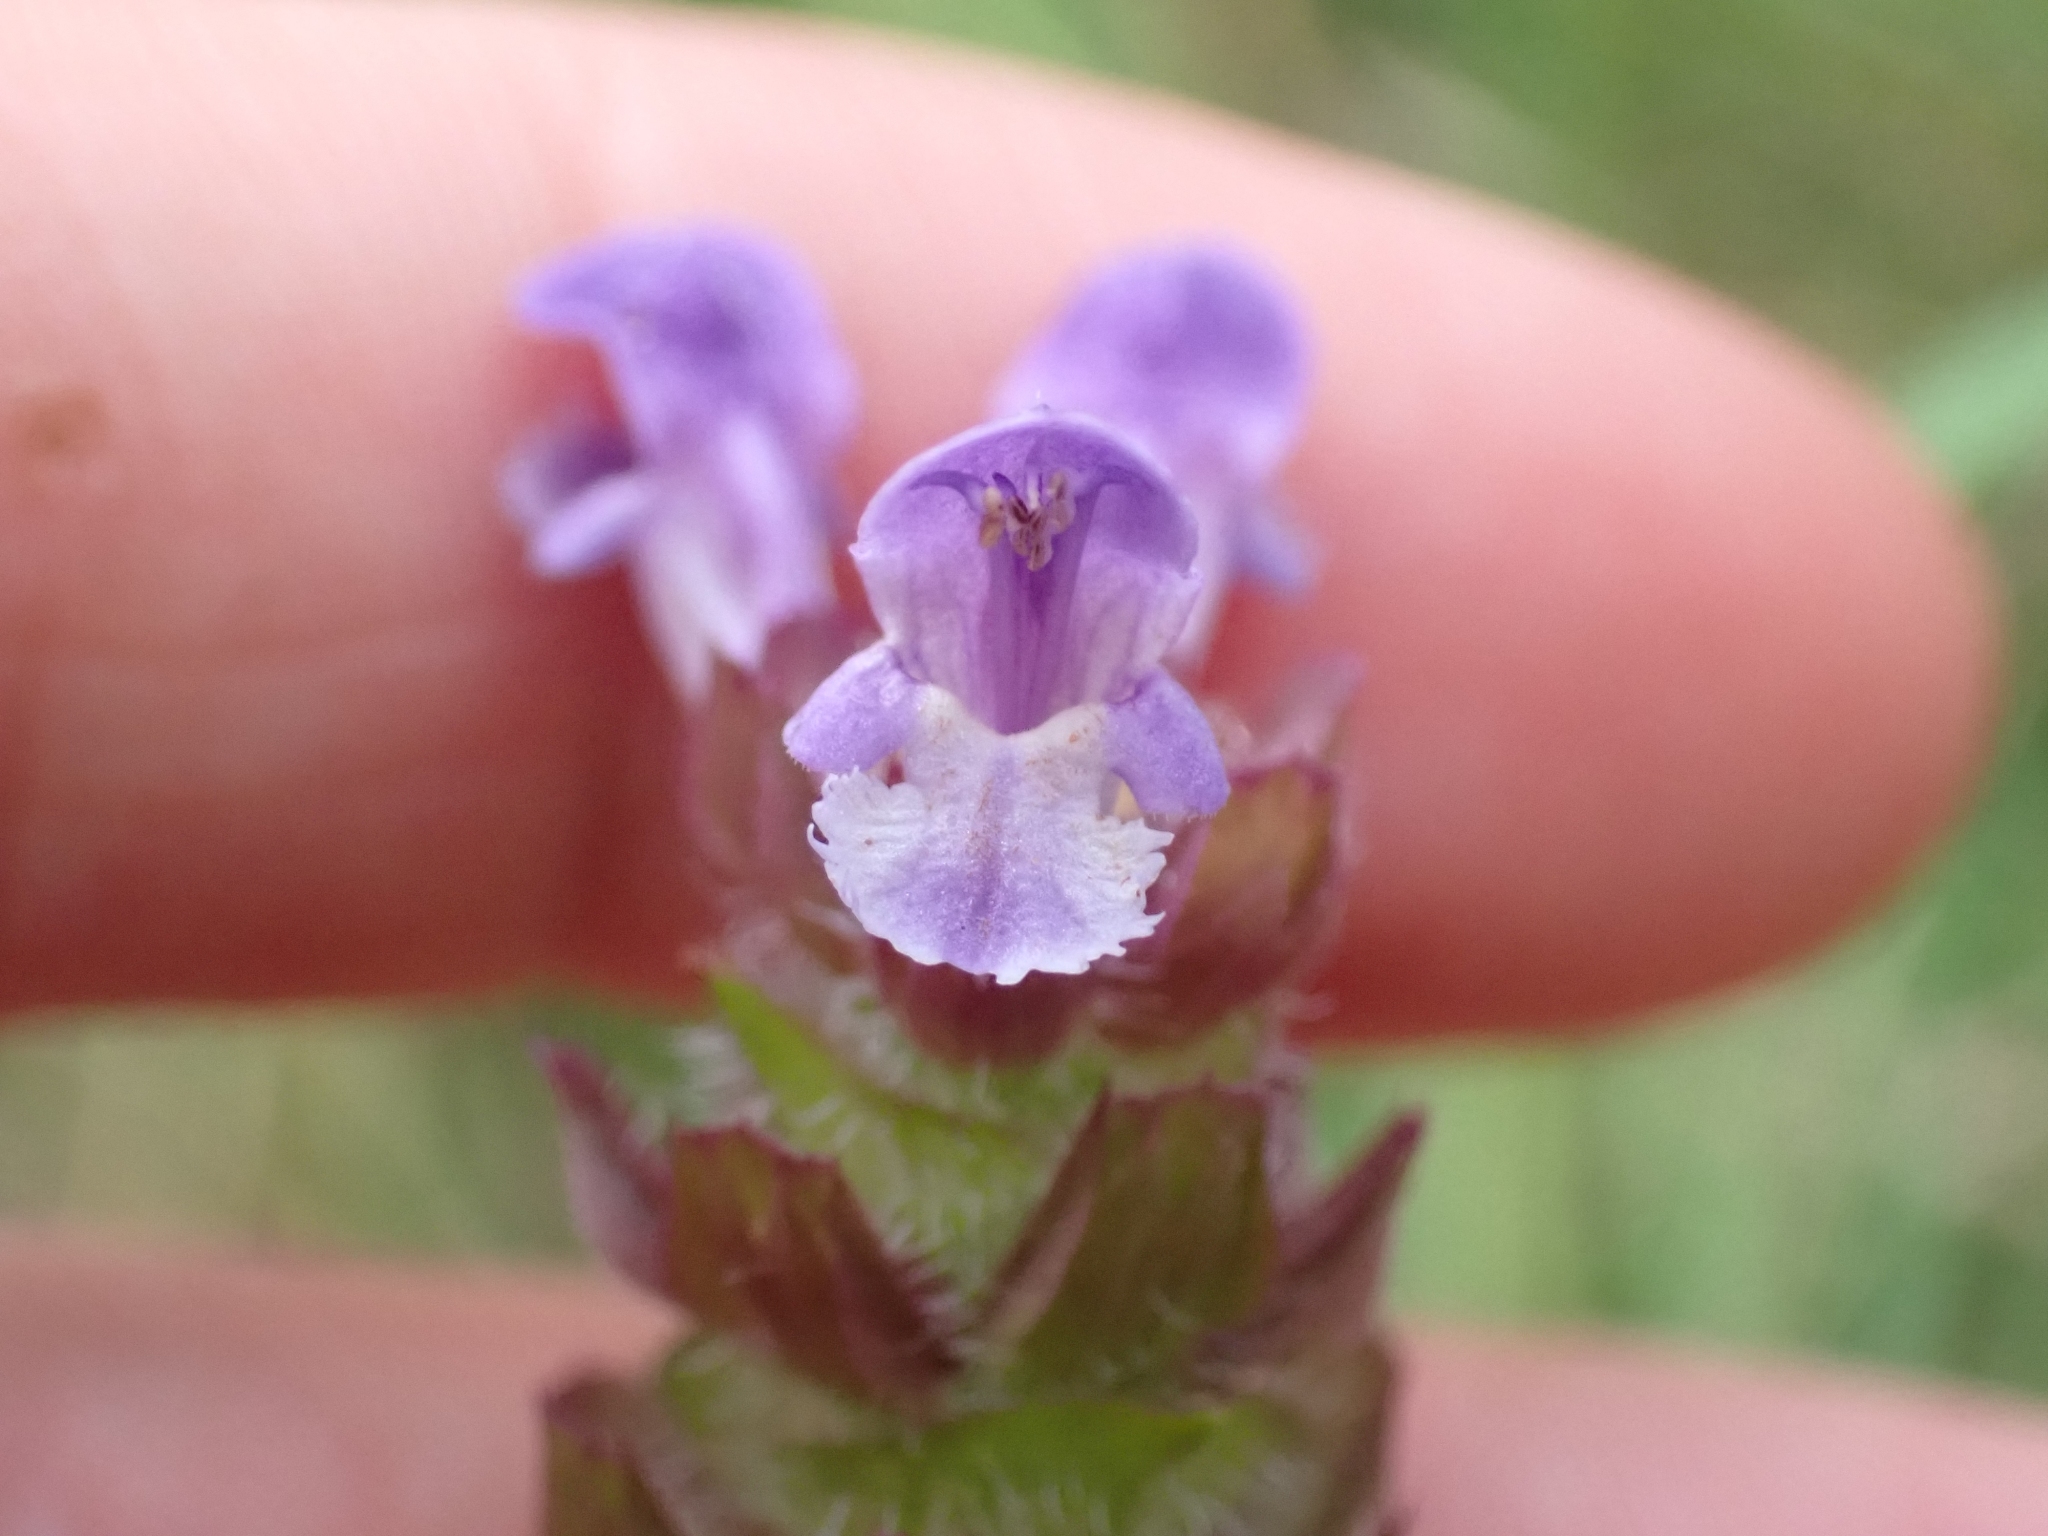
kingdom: Plantae
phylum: Tracheophyta
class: Magnoliopsida
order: Lamiales
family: Lamiaceae
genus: Prunella
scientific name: Prunella vulgaris
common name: Heal-all
